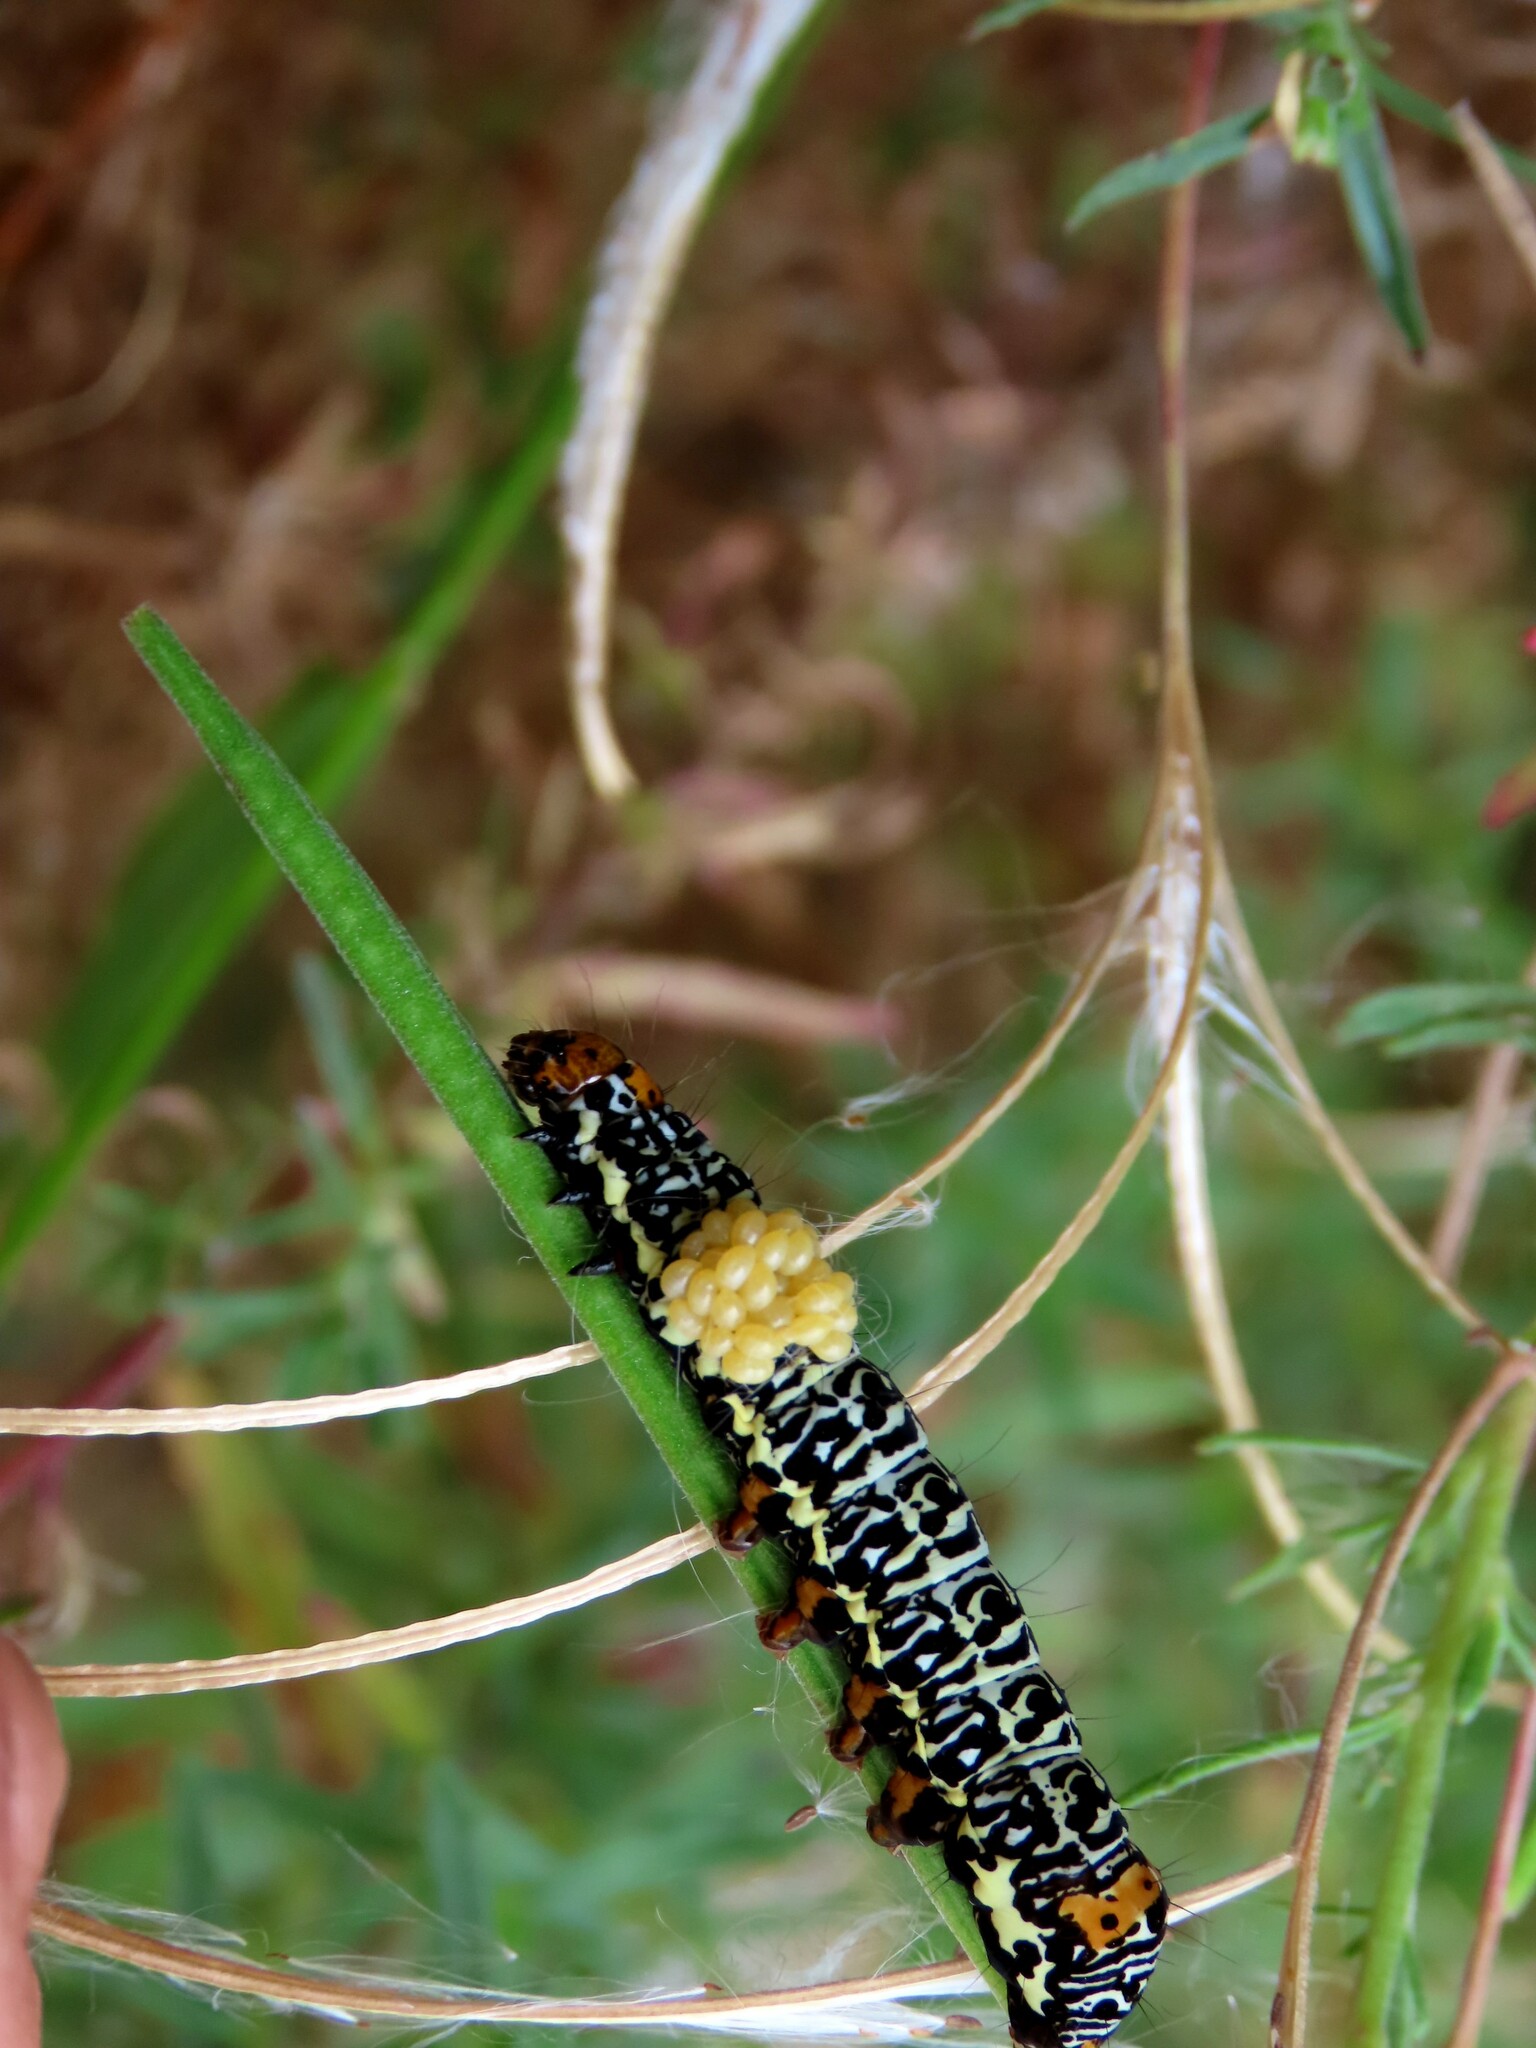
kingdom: Animalia
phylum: Arthropoda
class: Insecta
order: Lepidoptera
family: Noctuidae
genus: Phalaenoides
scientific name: Phalaenoides tristifica
